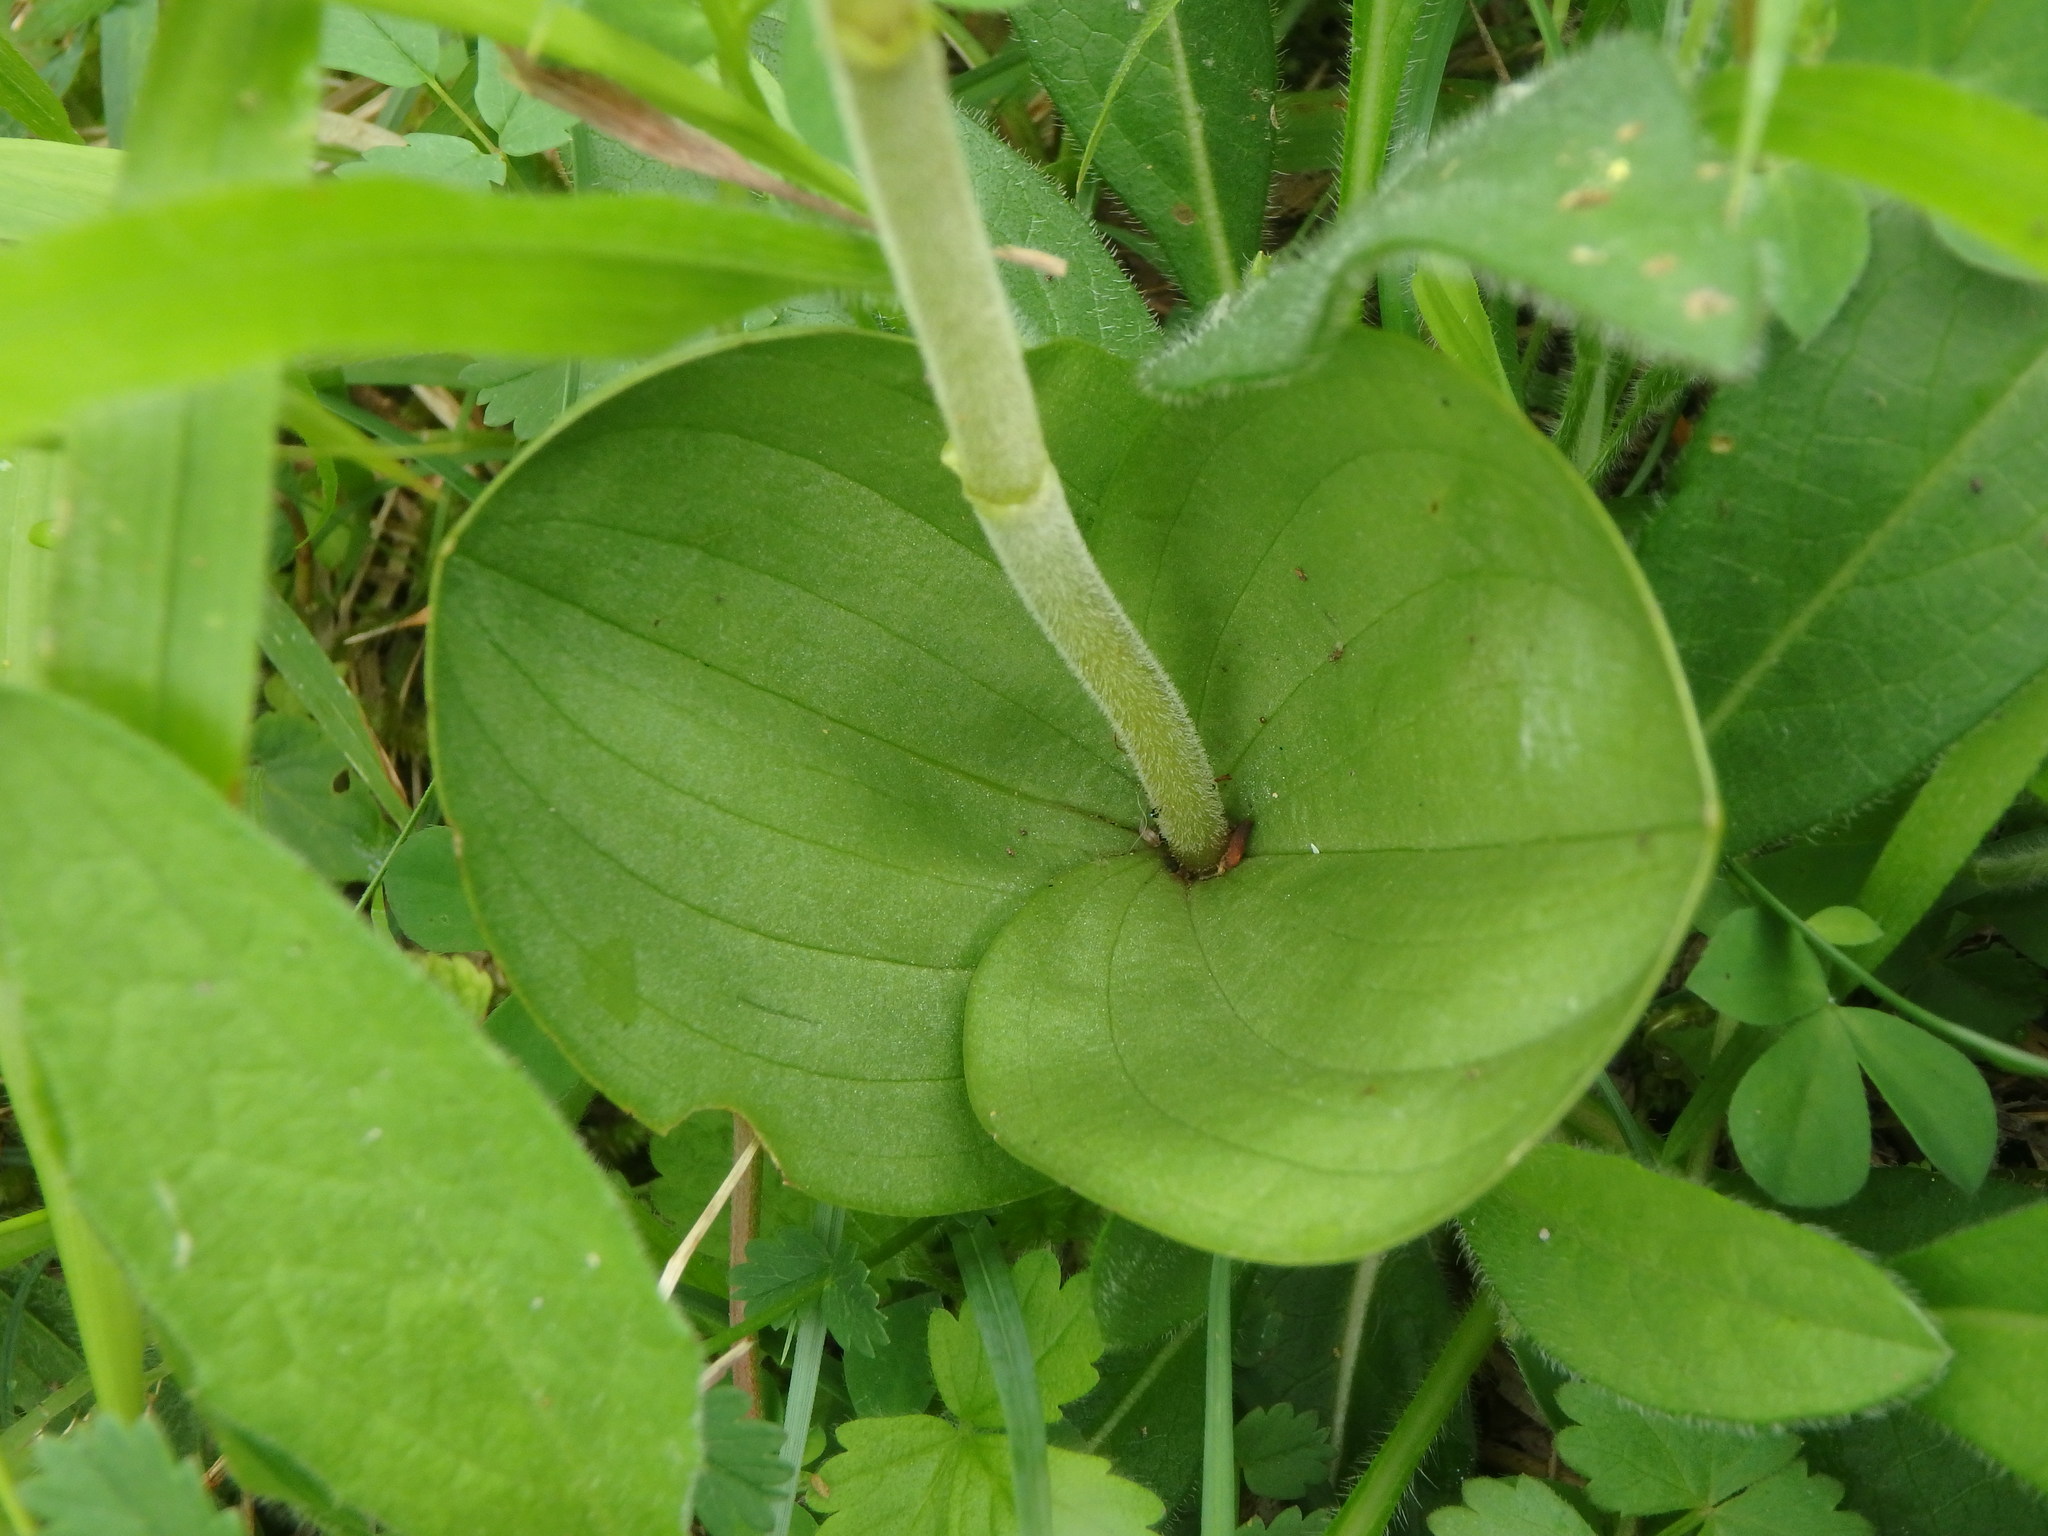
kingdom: Plantae
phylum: Tracheophyta
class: Liliopsida
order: Asparagales
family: Orchidaceae
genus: Neottia
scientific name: Neottia ovata
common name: Common twayblade
